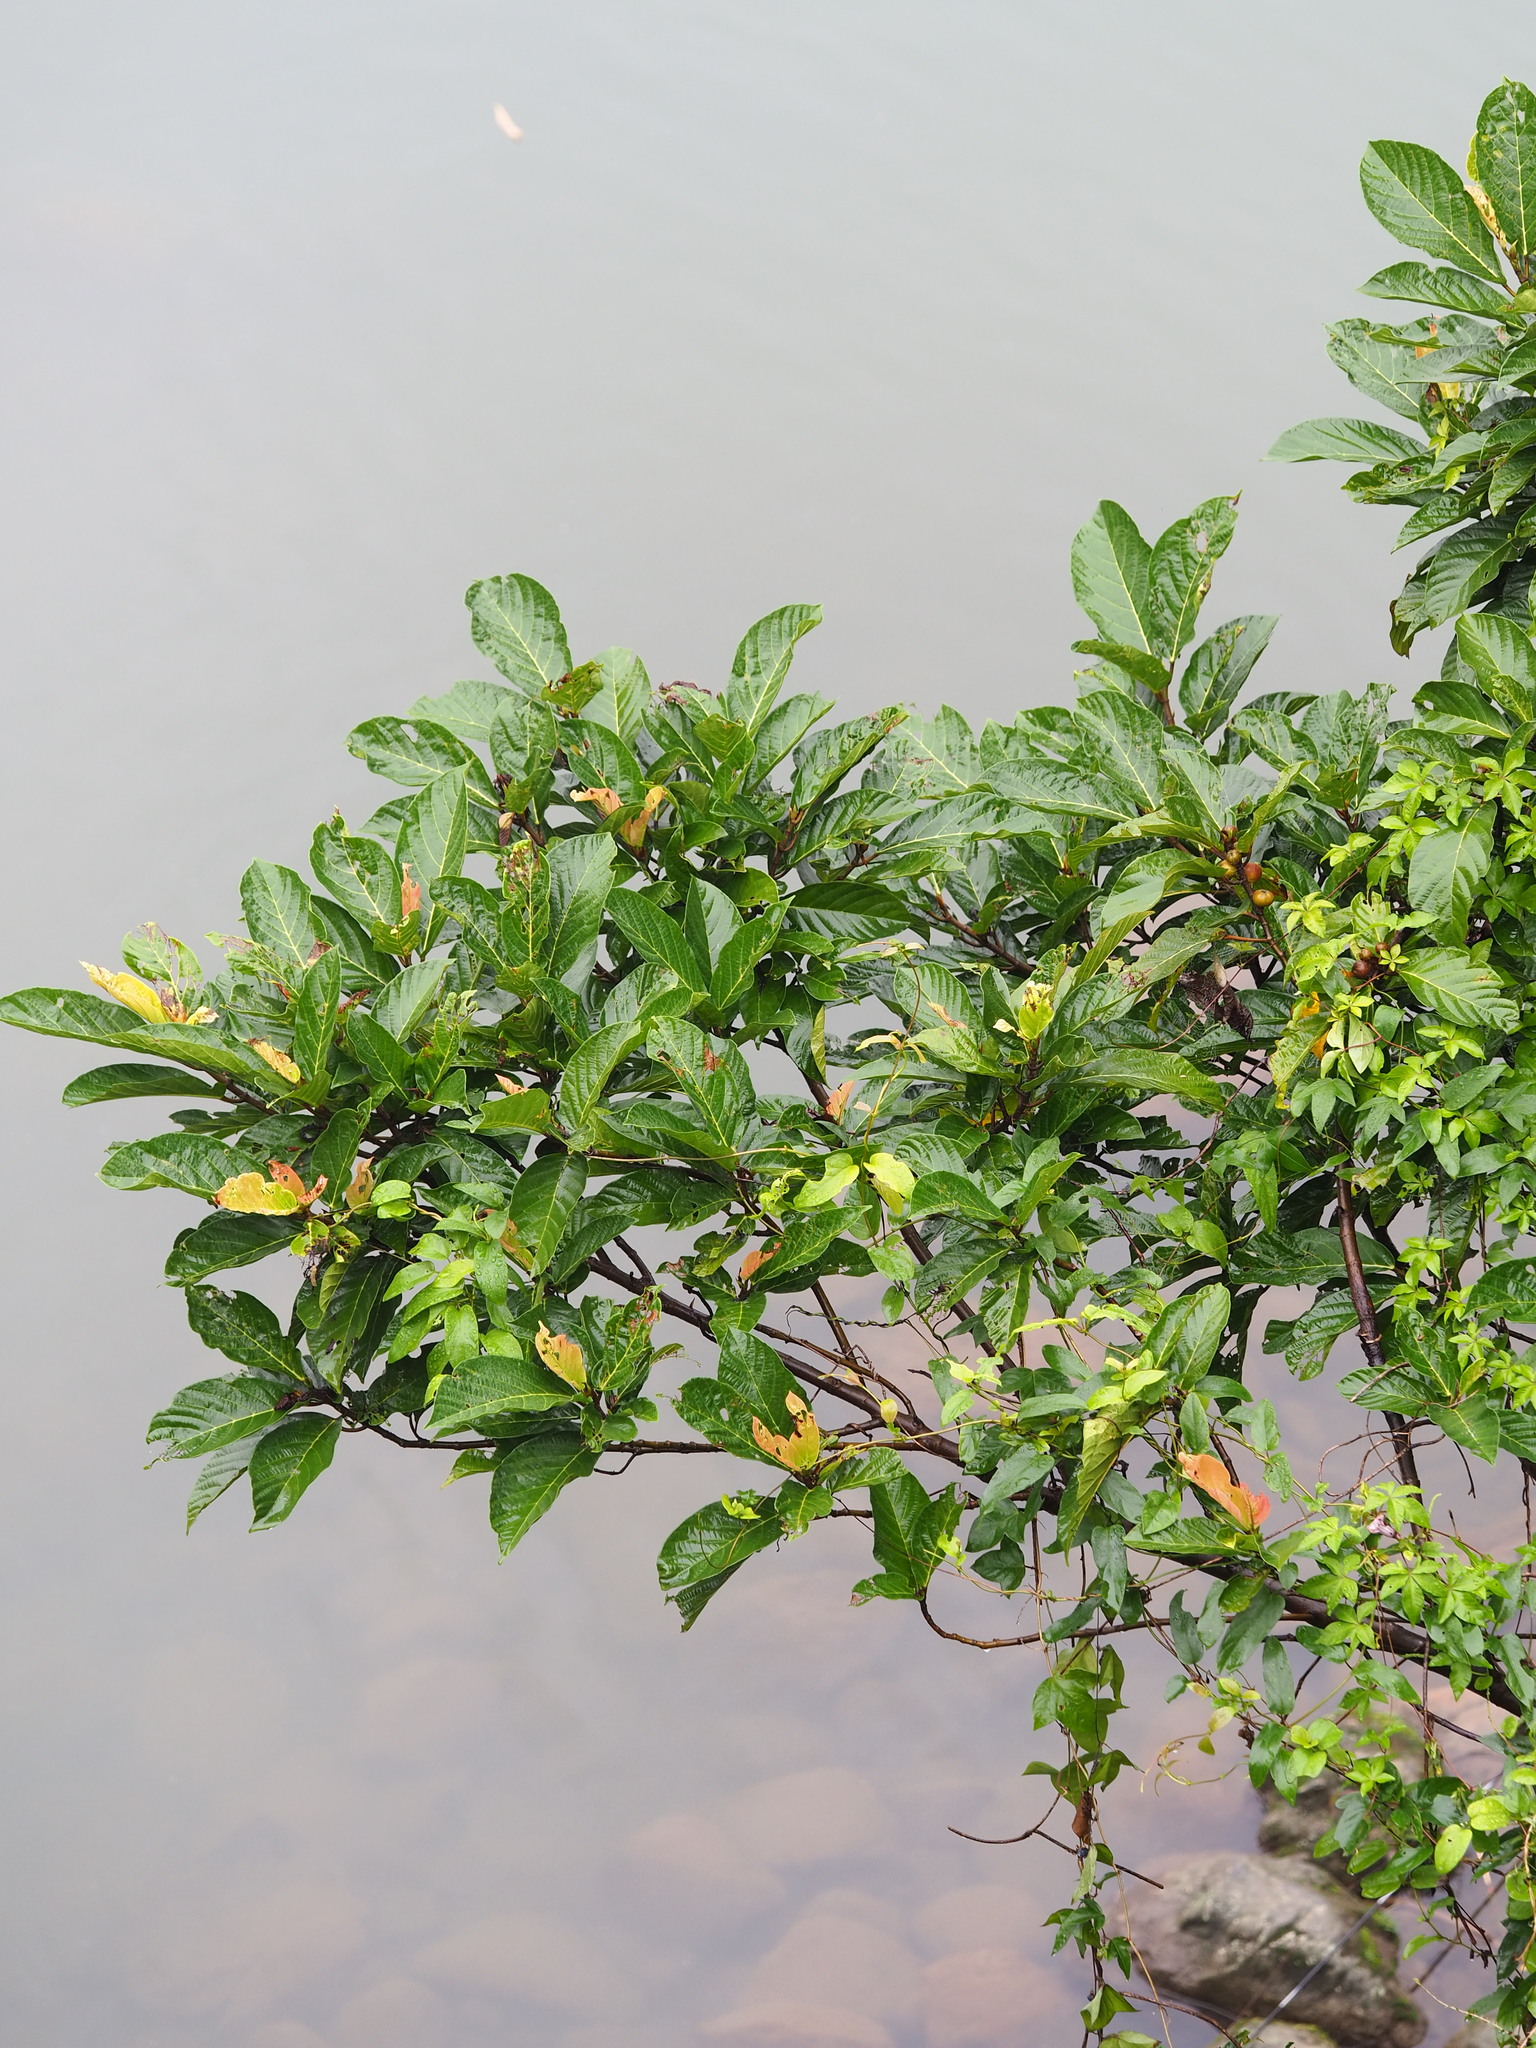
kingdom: Plantae
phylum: Tracheophyta
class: Magnoliopsida
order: Rosales
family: Moraceae
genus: Ficus
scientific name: Ficus benguetensis
